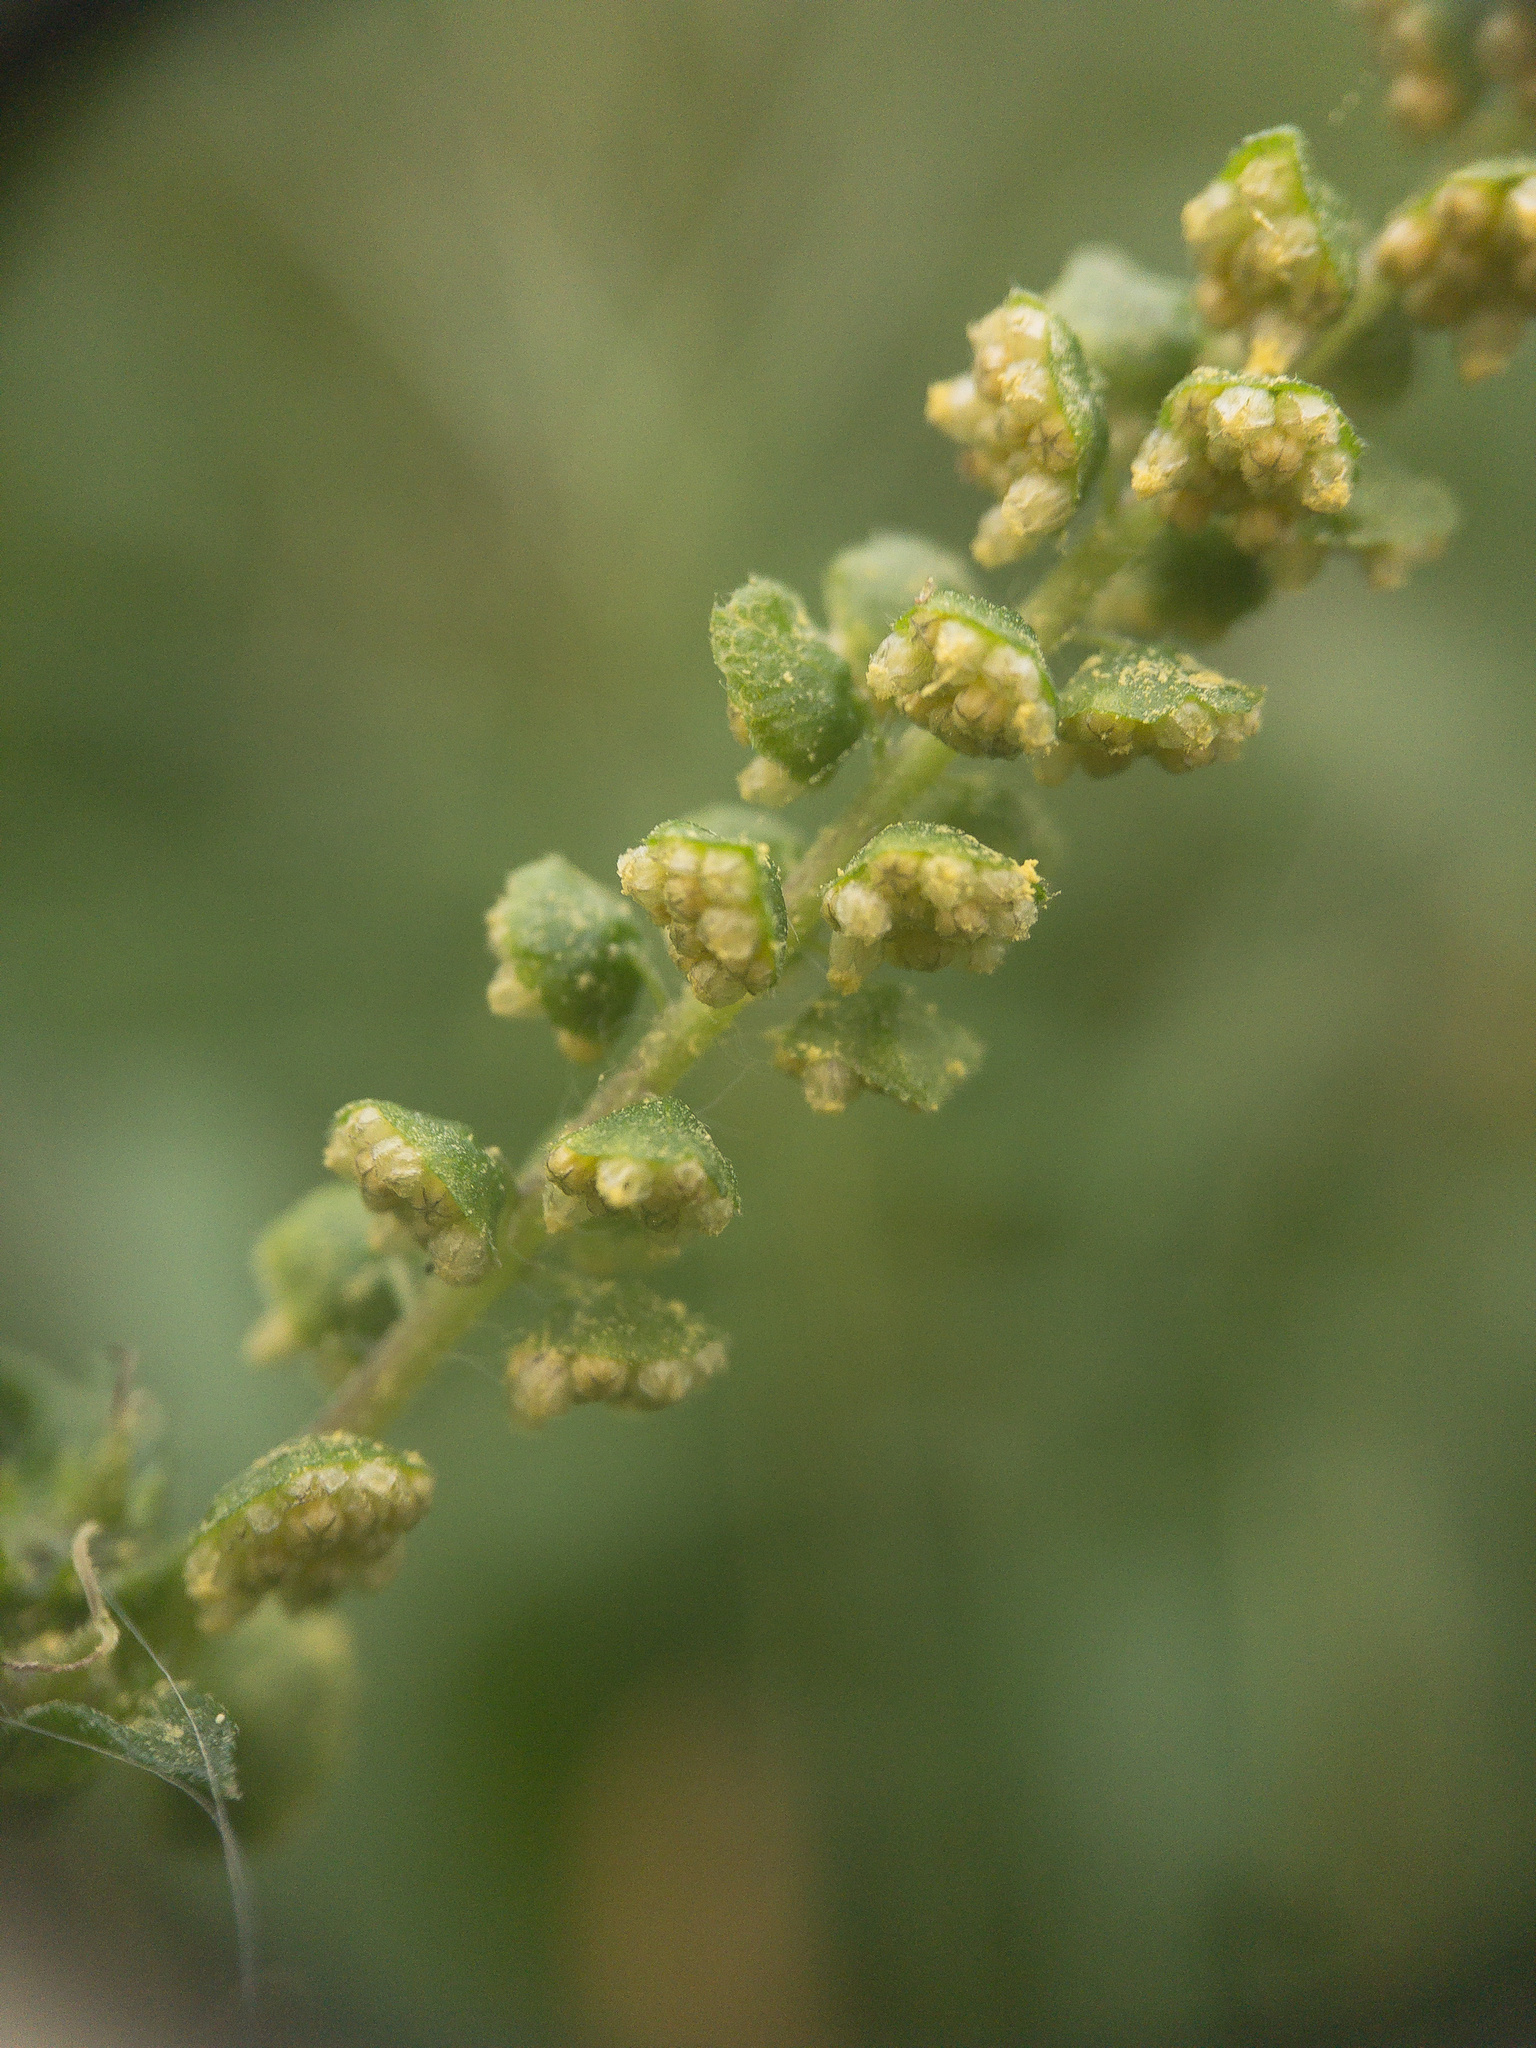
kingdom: Plantae
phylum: Tracheophyta
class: Magnoliopsida
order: Asterales
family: Asteraceae
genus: Ambrosia
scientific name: Ambrosia artemisiifolia
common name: Annual ragweed
